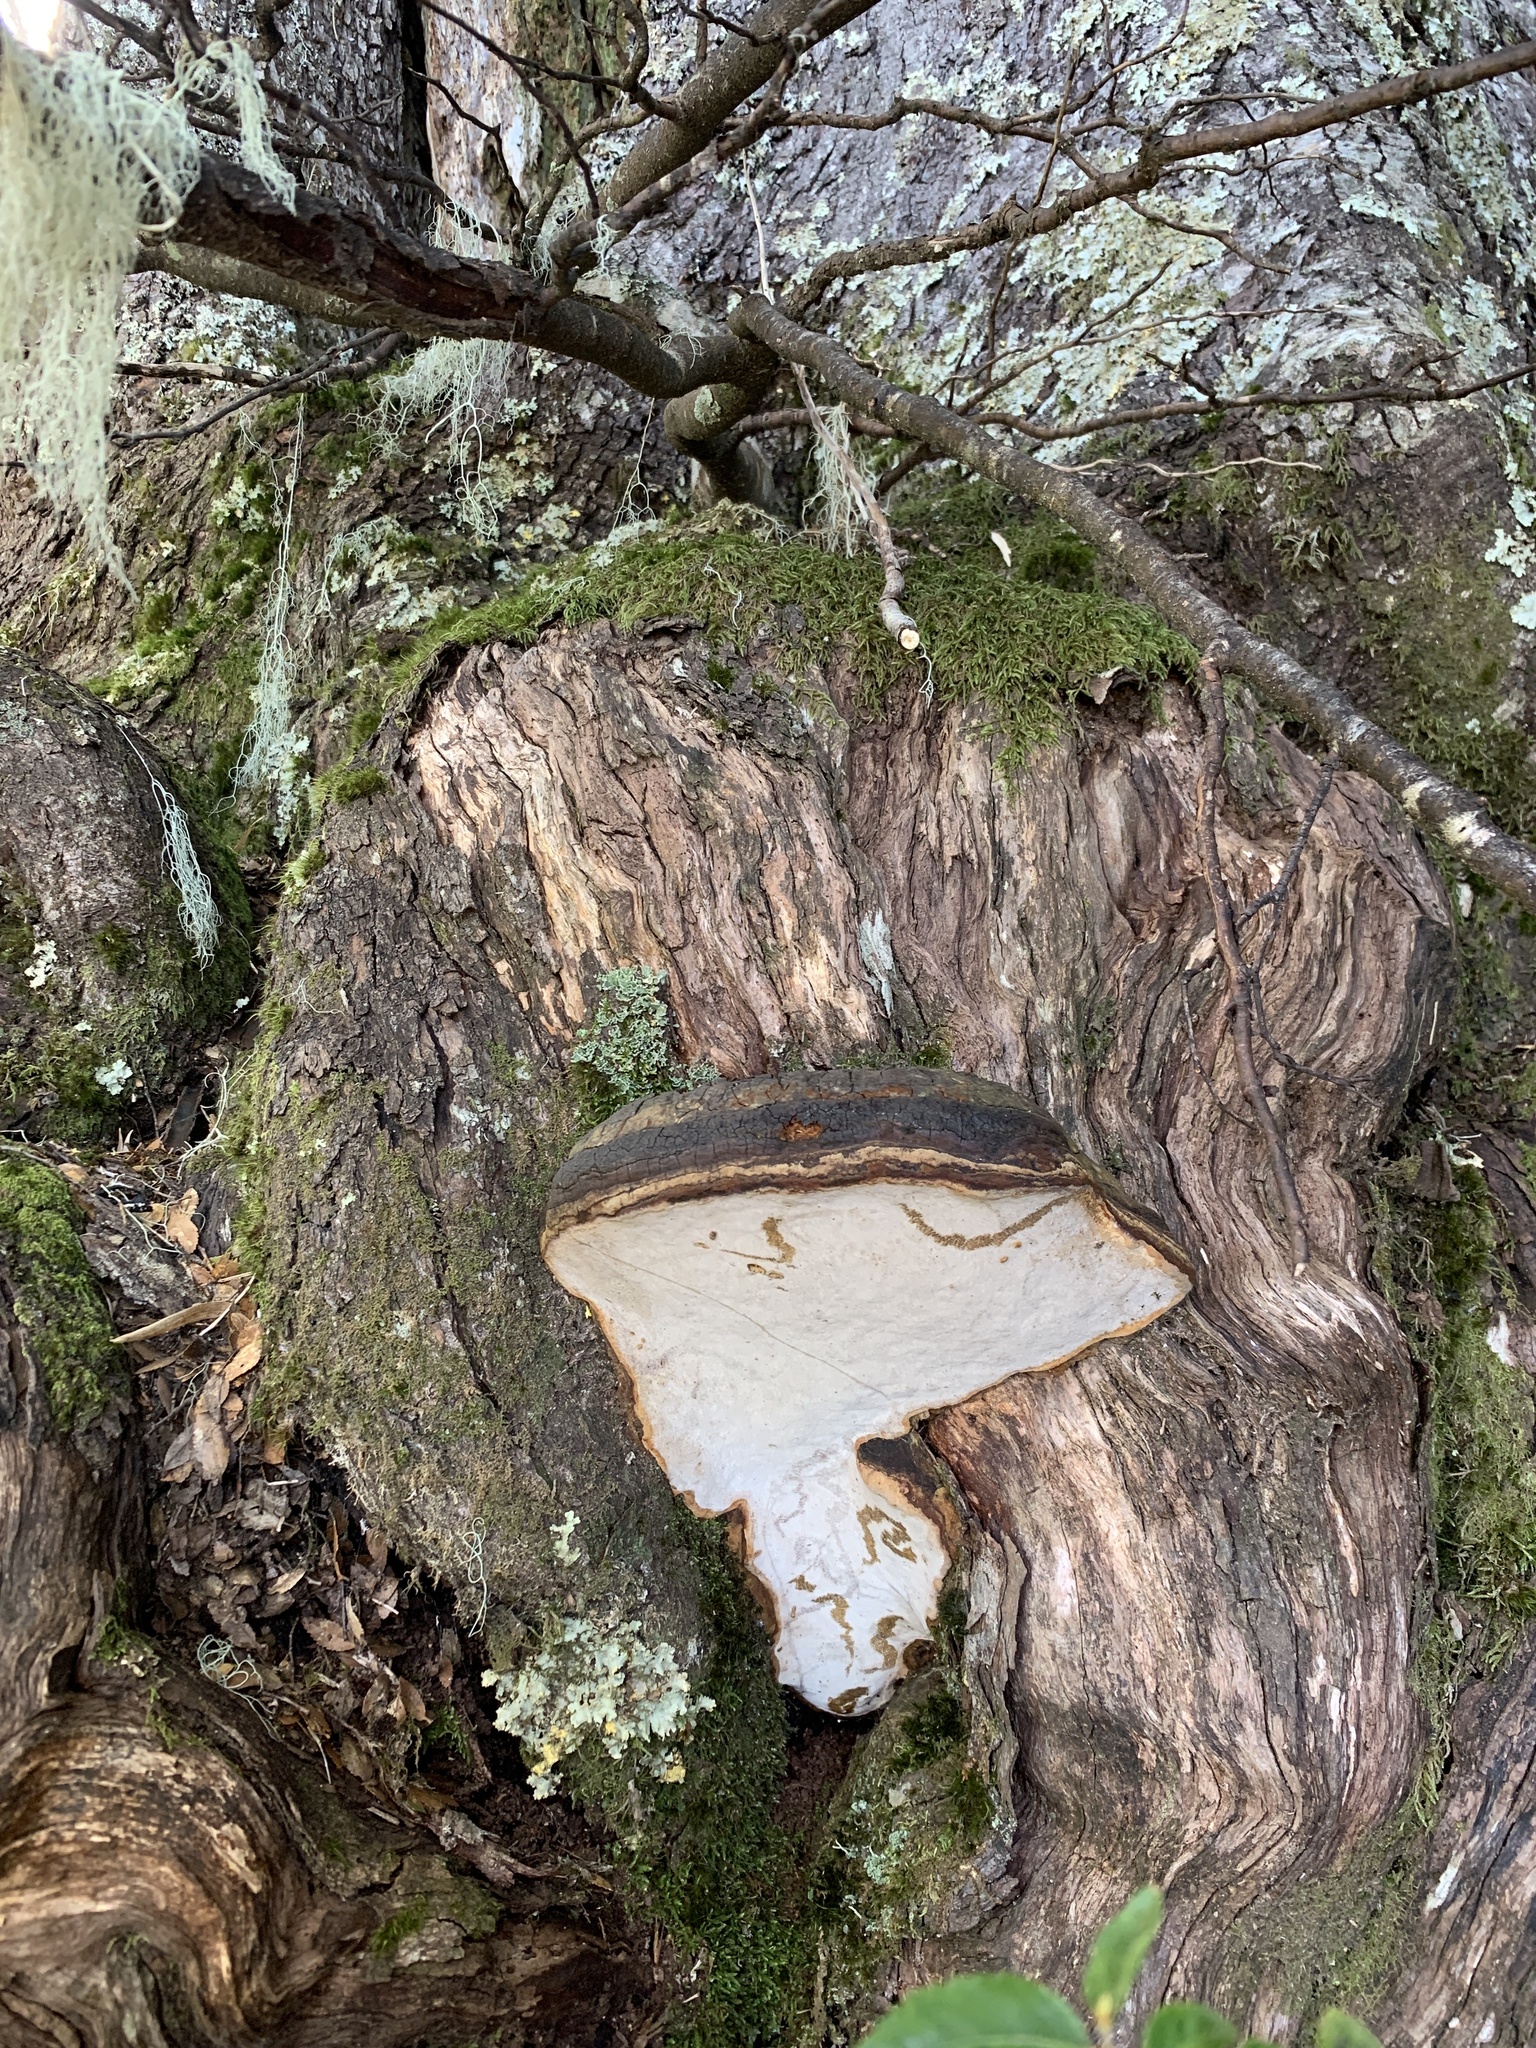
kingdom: Fungi
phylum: Basidiomycota
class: Agaricomycetes
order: Polyporales
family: Polyporaceae
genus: Ganoderma
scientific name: Ganoderma australe
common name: Southern bracket
